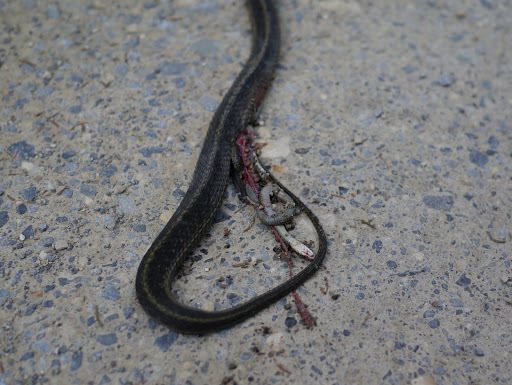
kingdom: Animalia
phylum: Chordata
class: Squamata
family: Colubridae
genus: Thamnophis
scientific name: Thamnophis sirtalis
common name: Common garter snake
